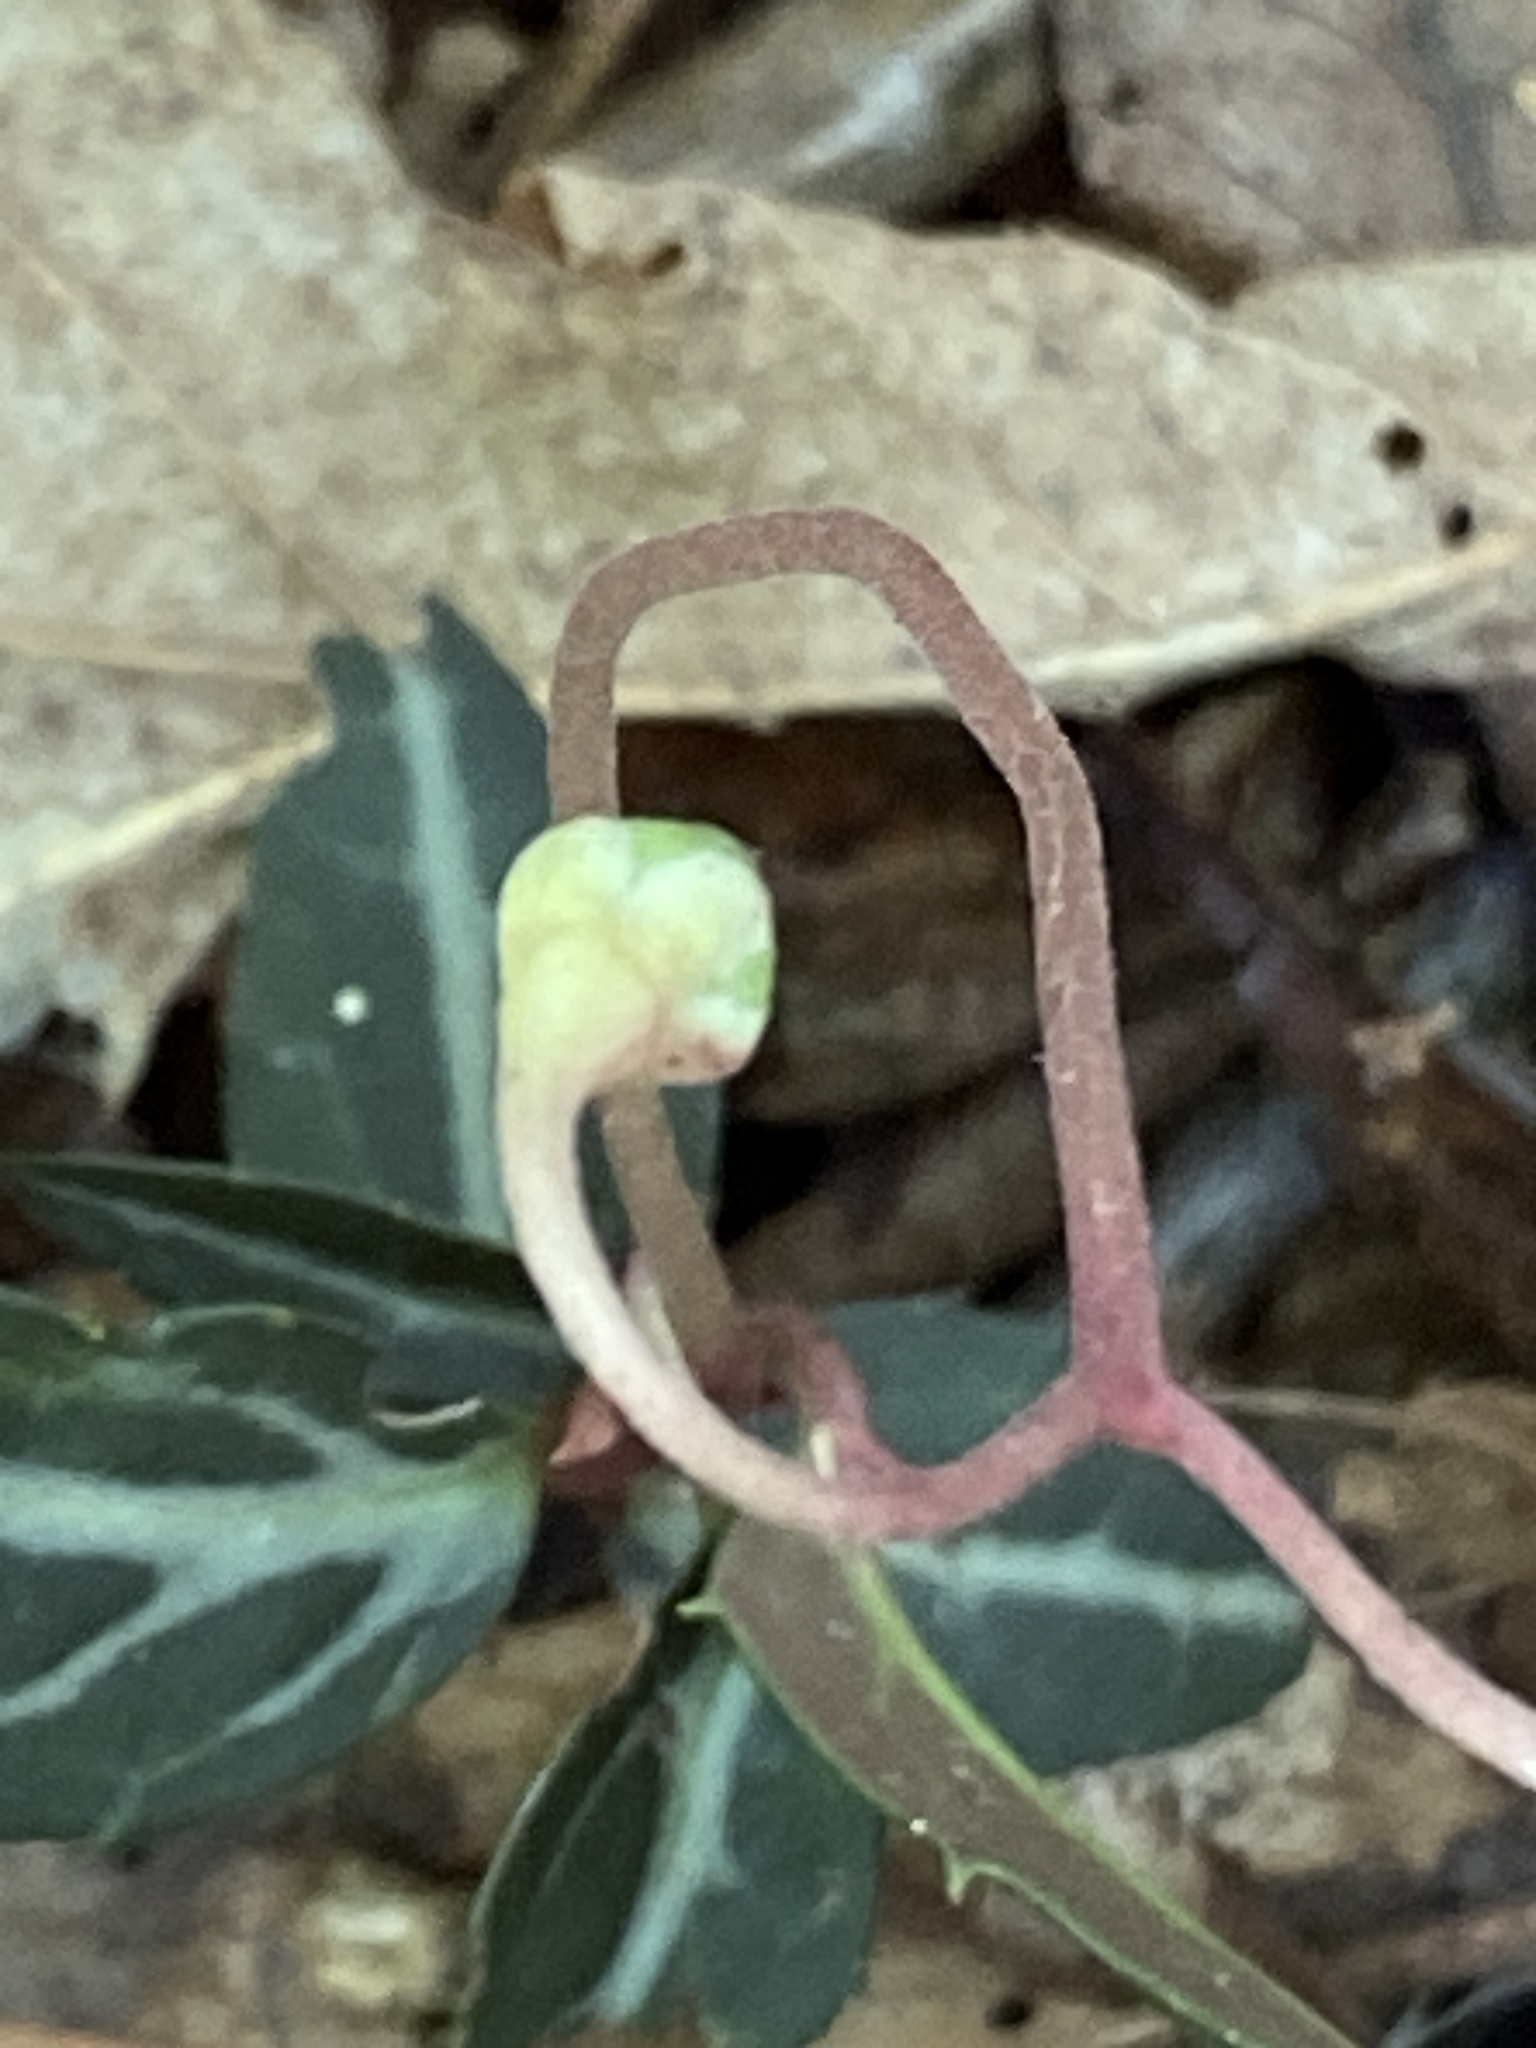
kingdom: Plantae
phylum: Tracheophyta
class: Magnoliopsida
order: Ericales
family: Ericaceae
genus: Chimaphila
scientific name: Chimaphila maculata
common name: Spotted pipsissewa
